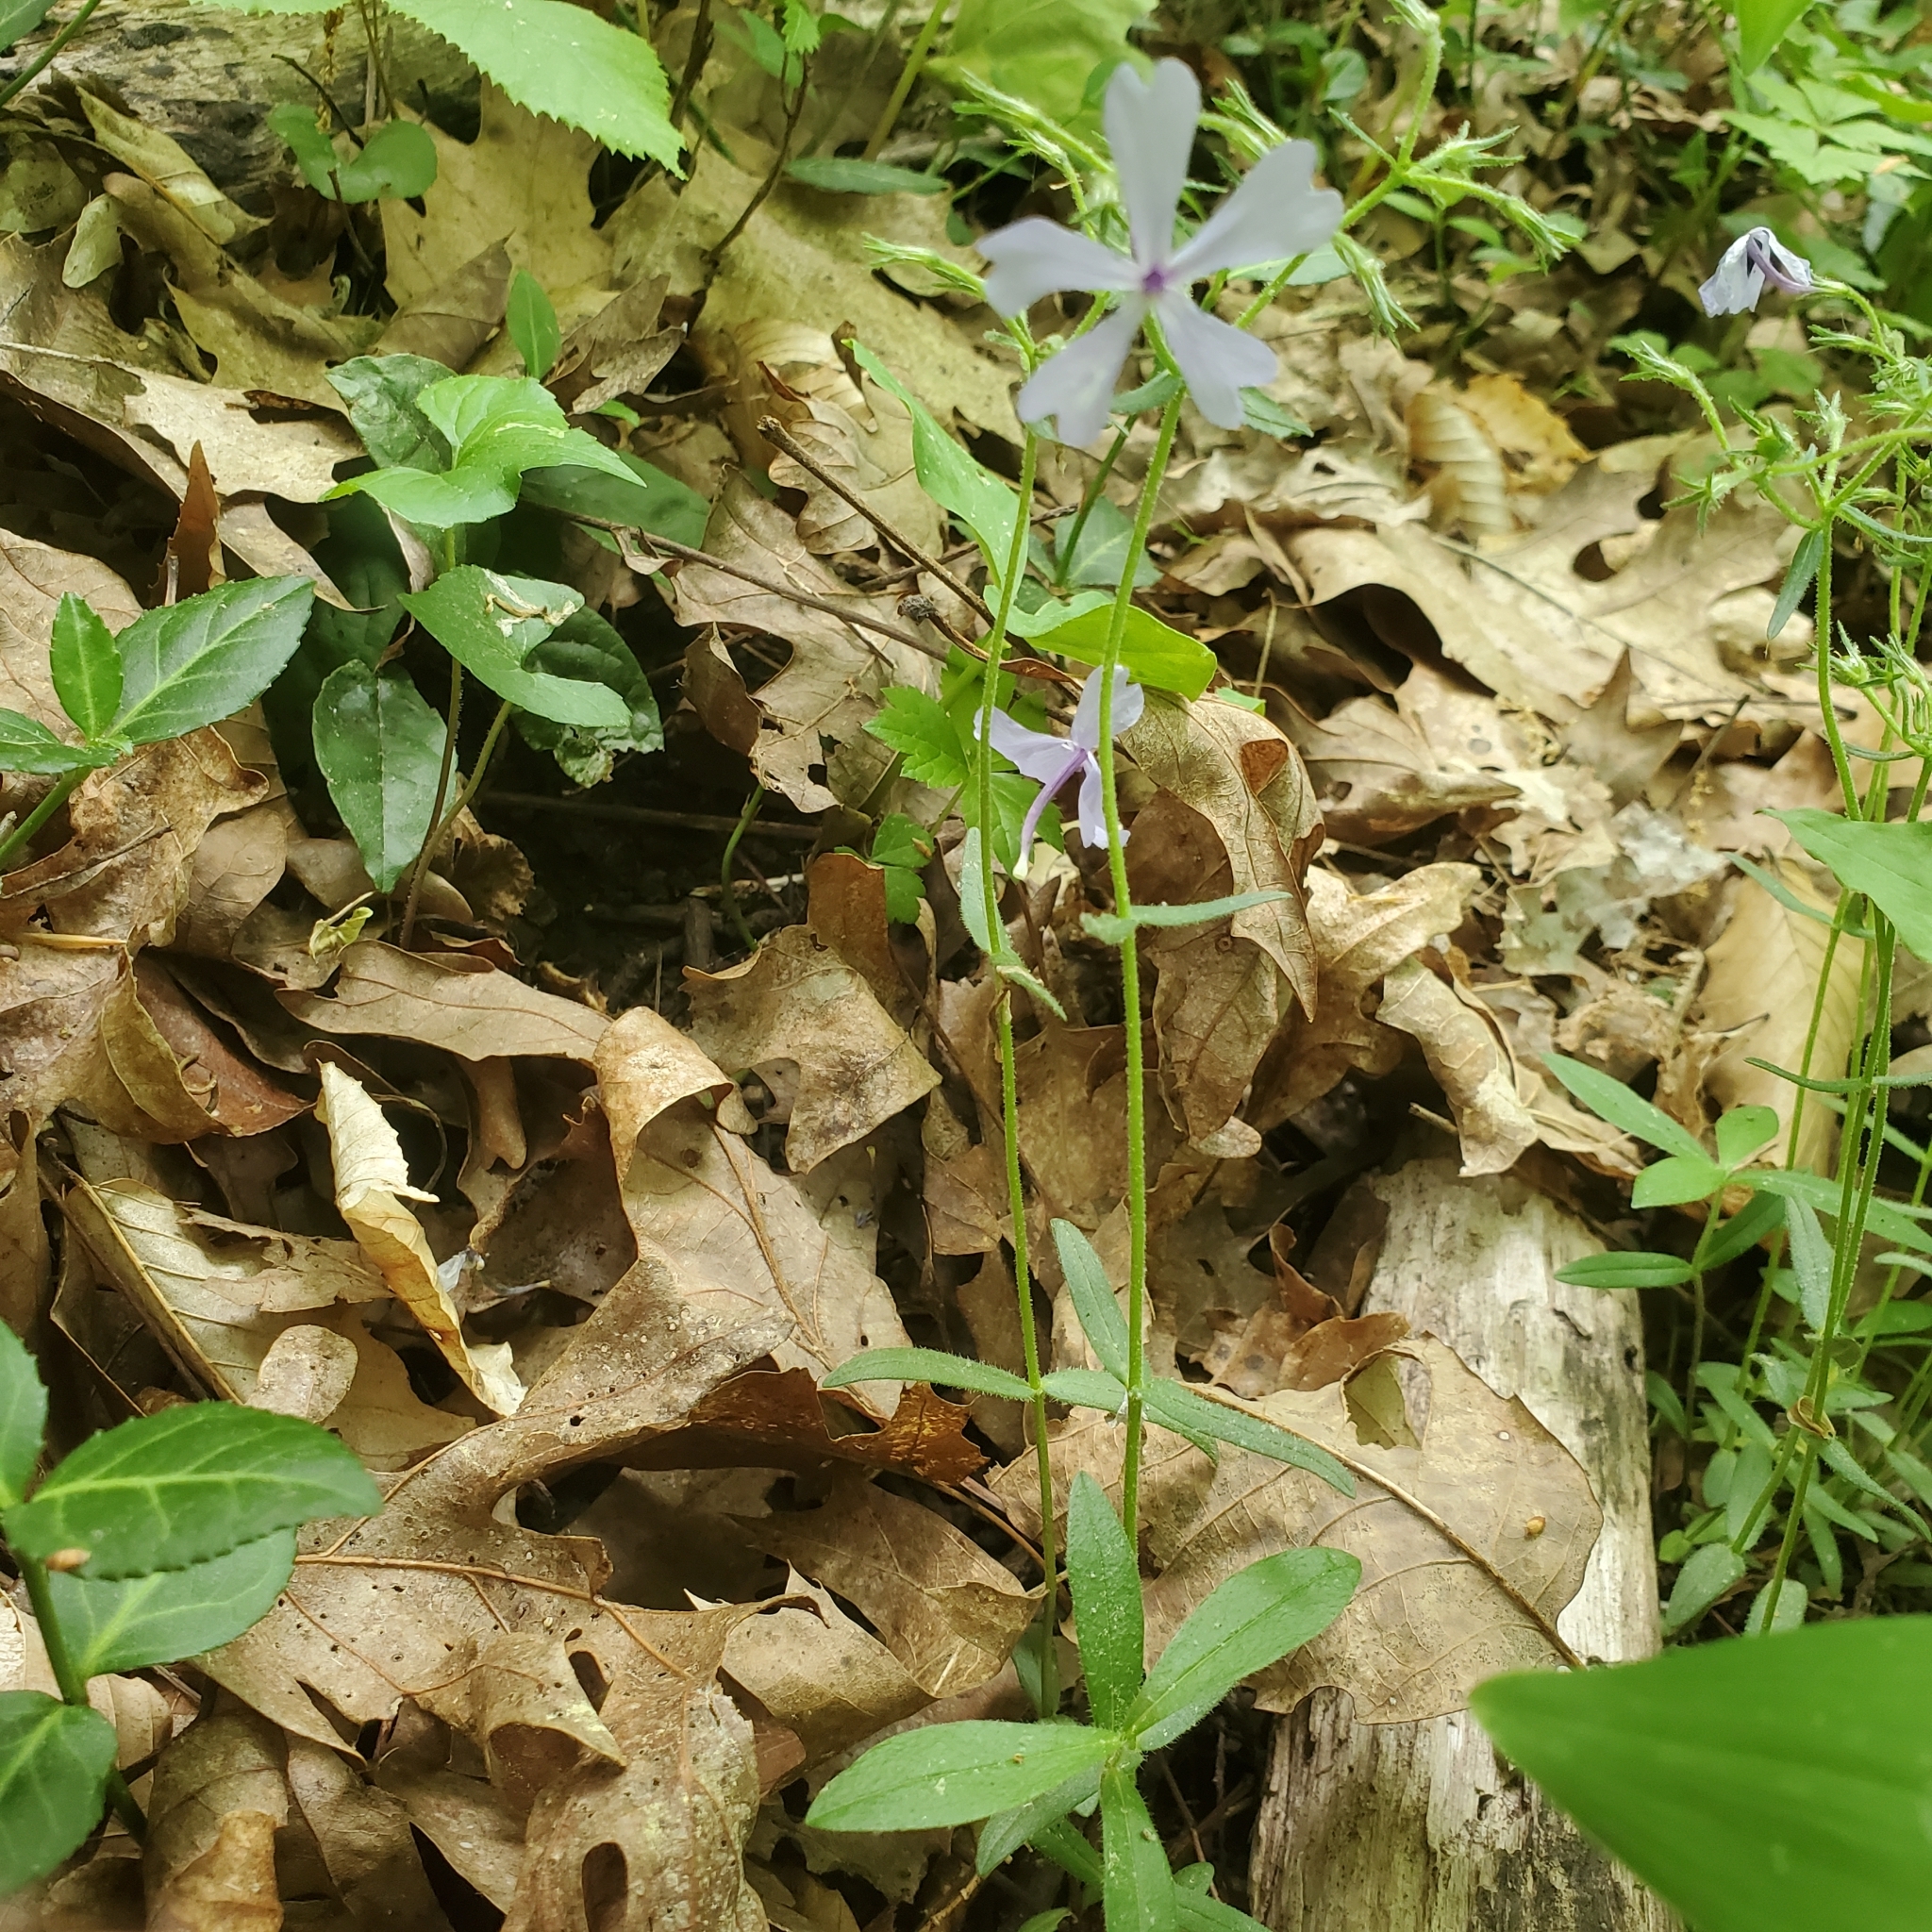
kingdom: Plantae
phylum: Tracheophyta
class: Magnoliopsida
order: Ericales
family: Polemoniaceae
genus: Phlox
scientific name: Phlox divaricata
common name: Blue phlox
